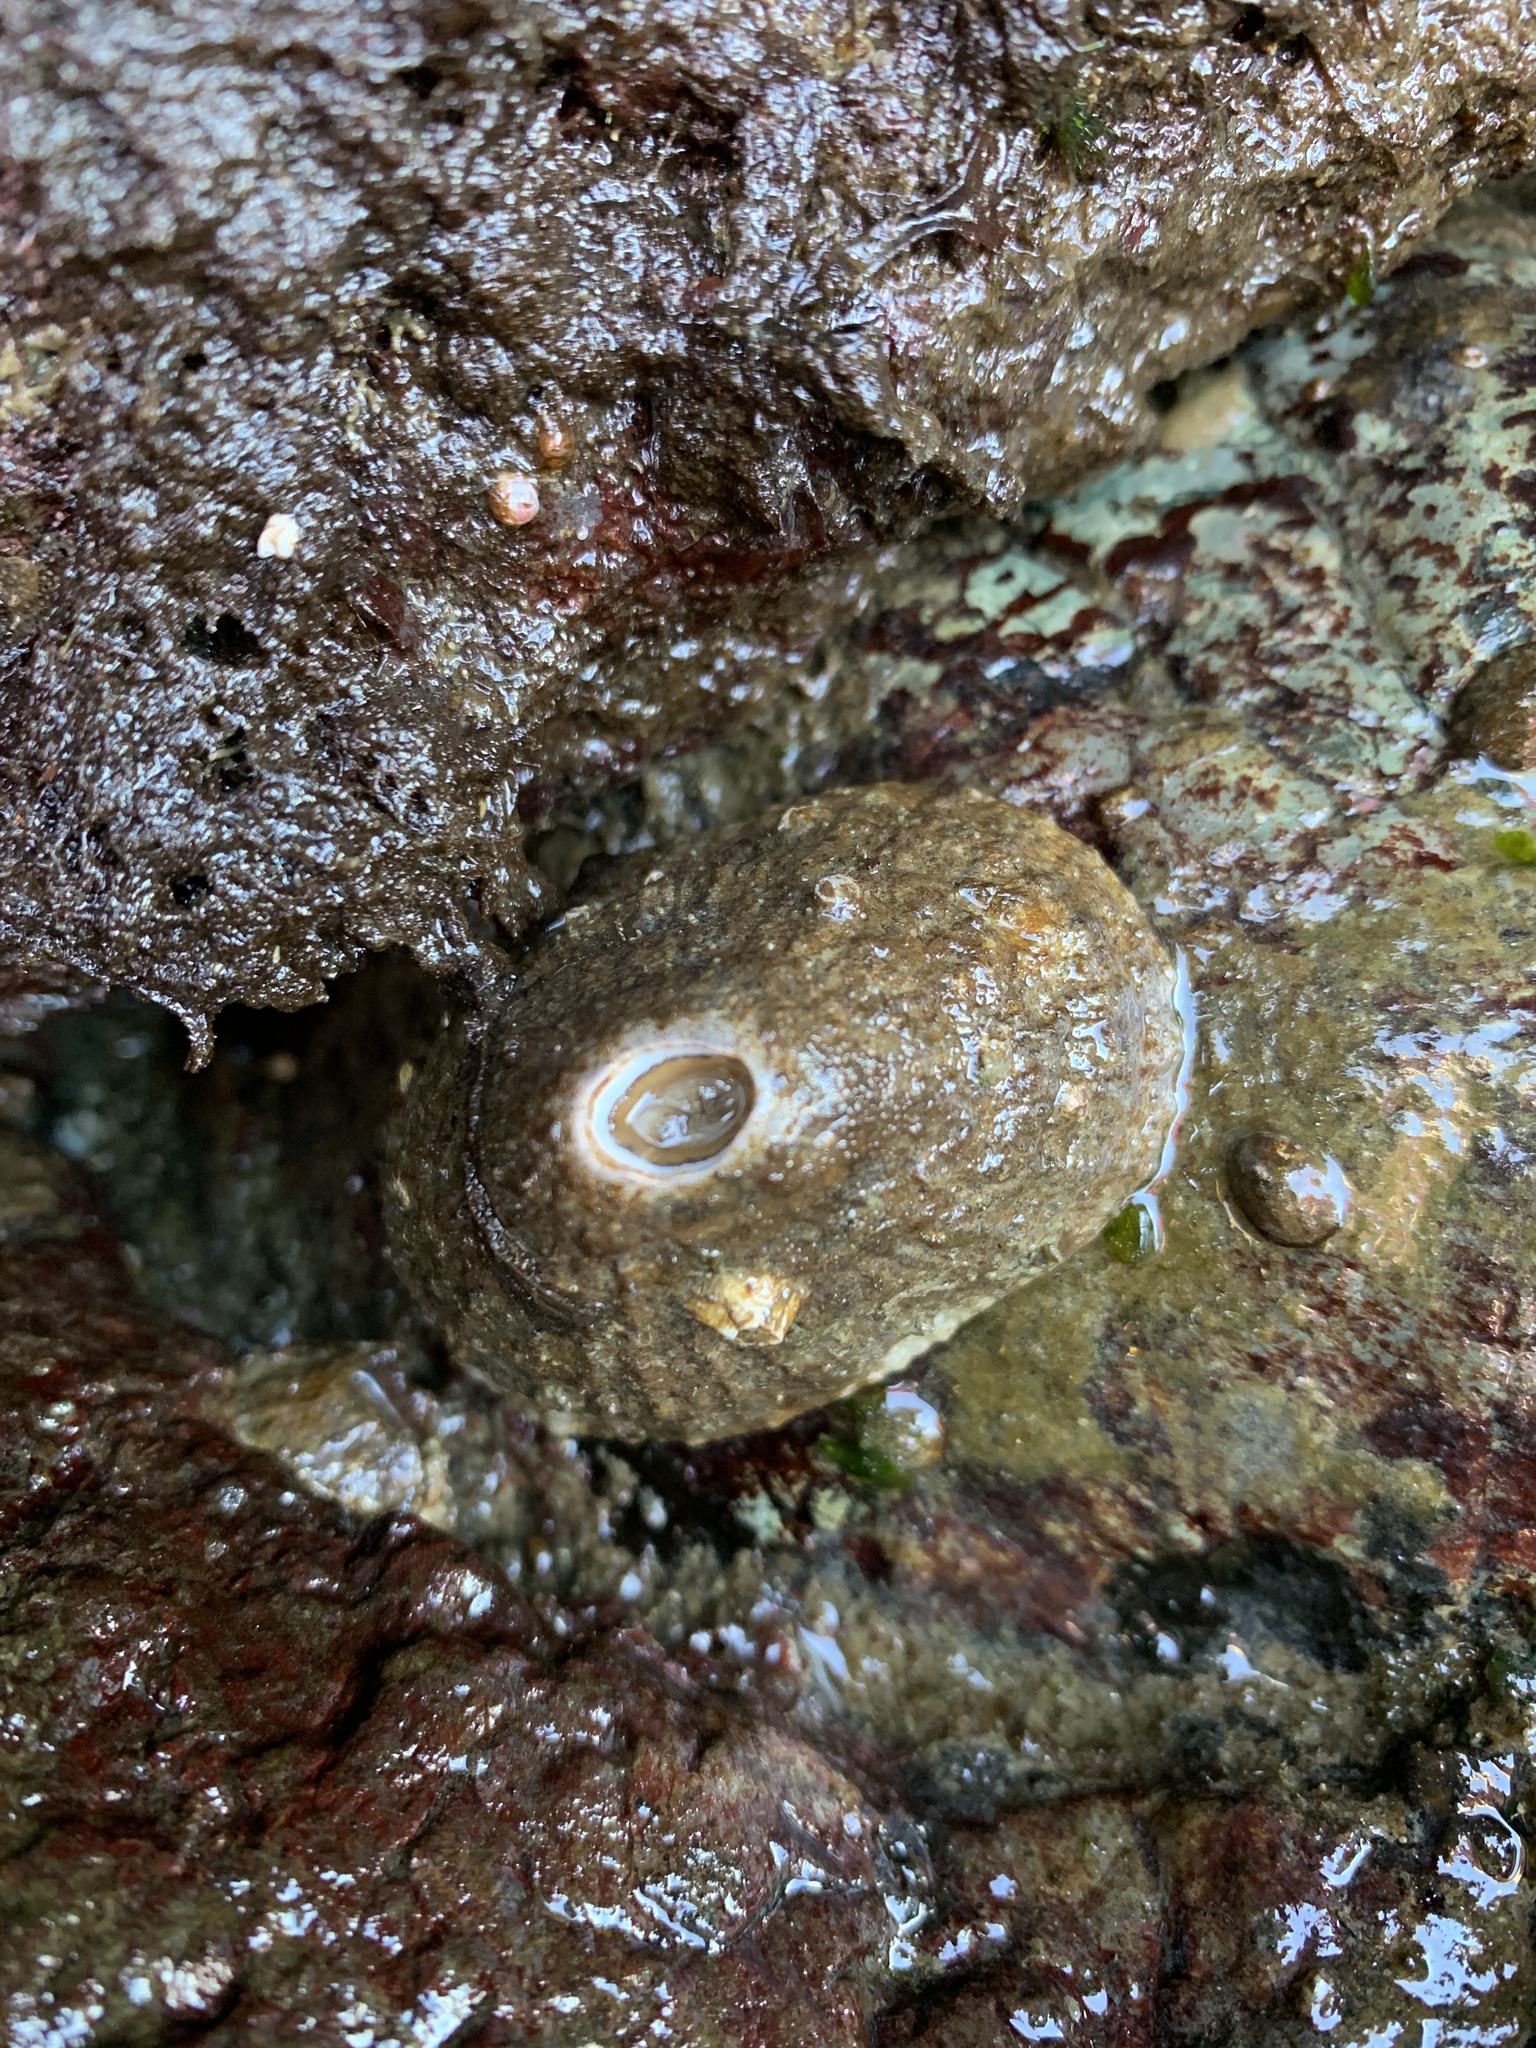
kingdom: Animalia
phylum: Mollusca
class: Gastropoda
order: Lepetellida
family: Fissurellidae
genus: Diodora
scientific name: Diodora aspera
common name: Rough keyhole limpet
